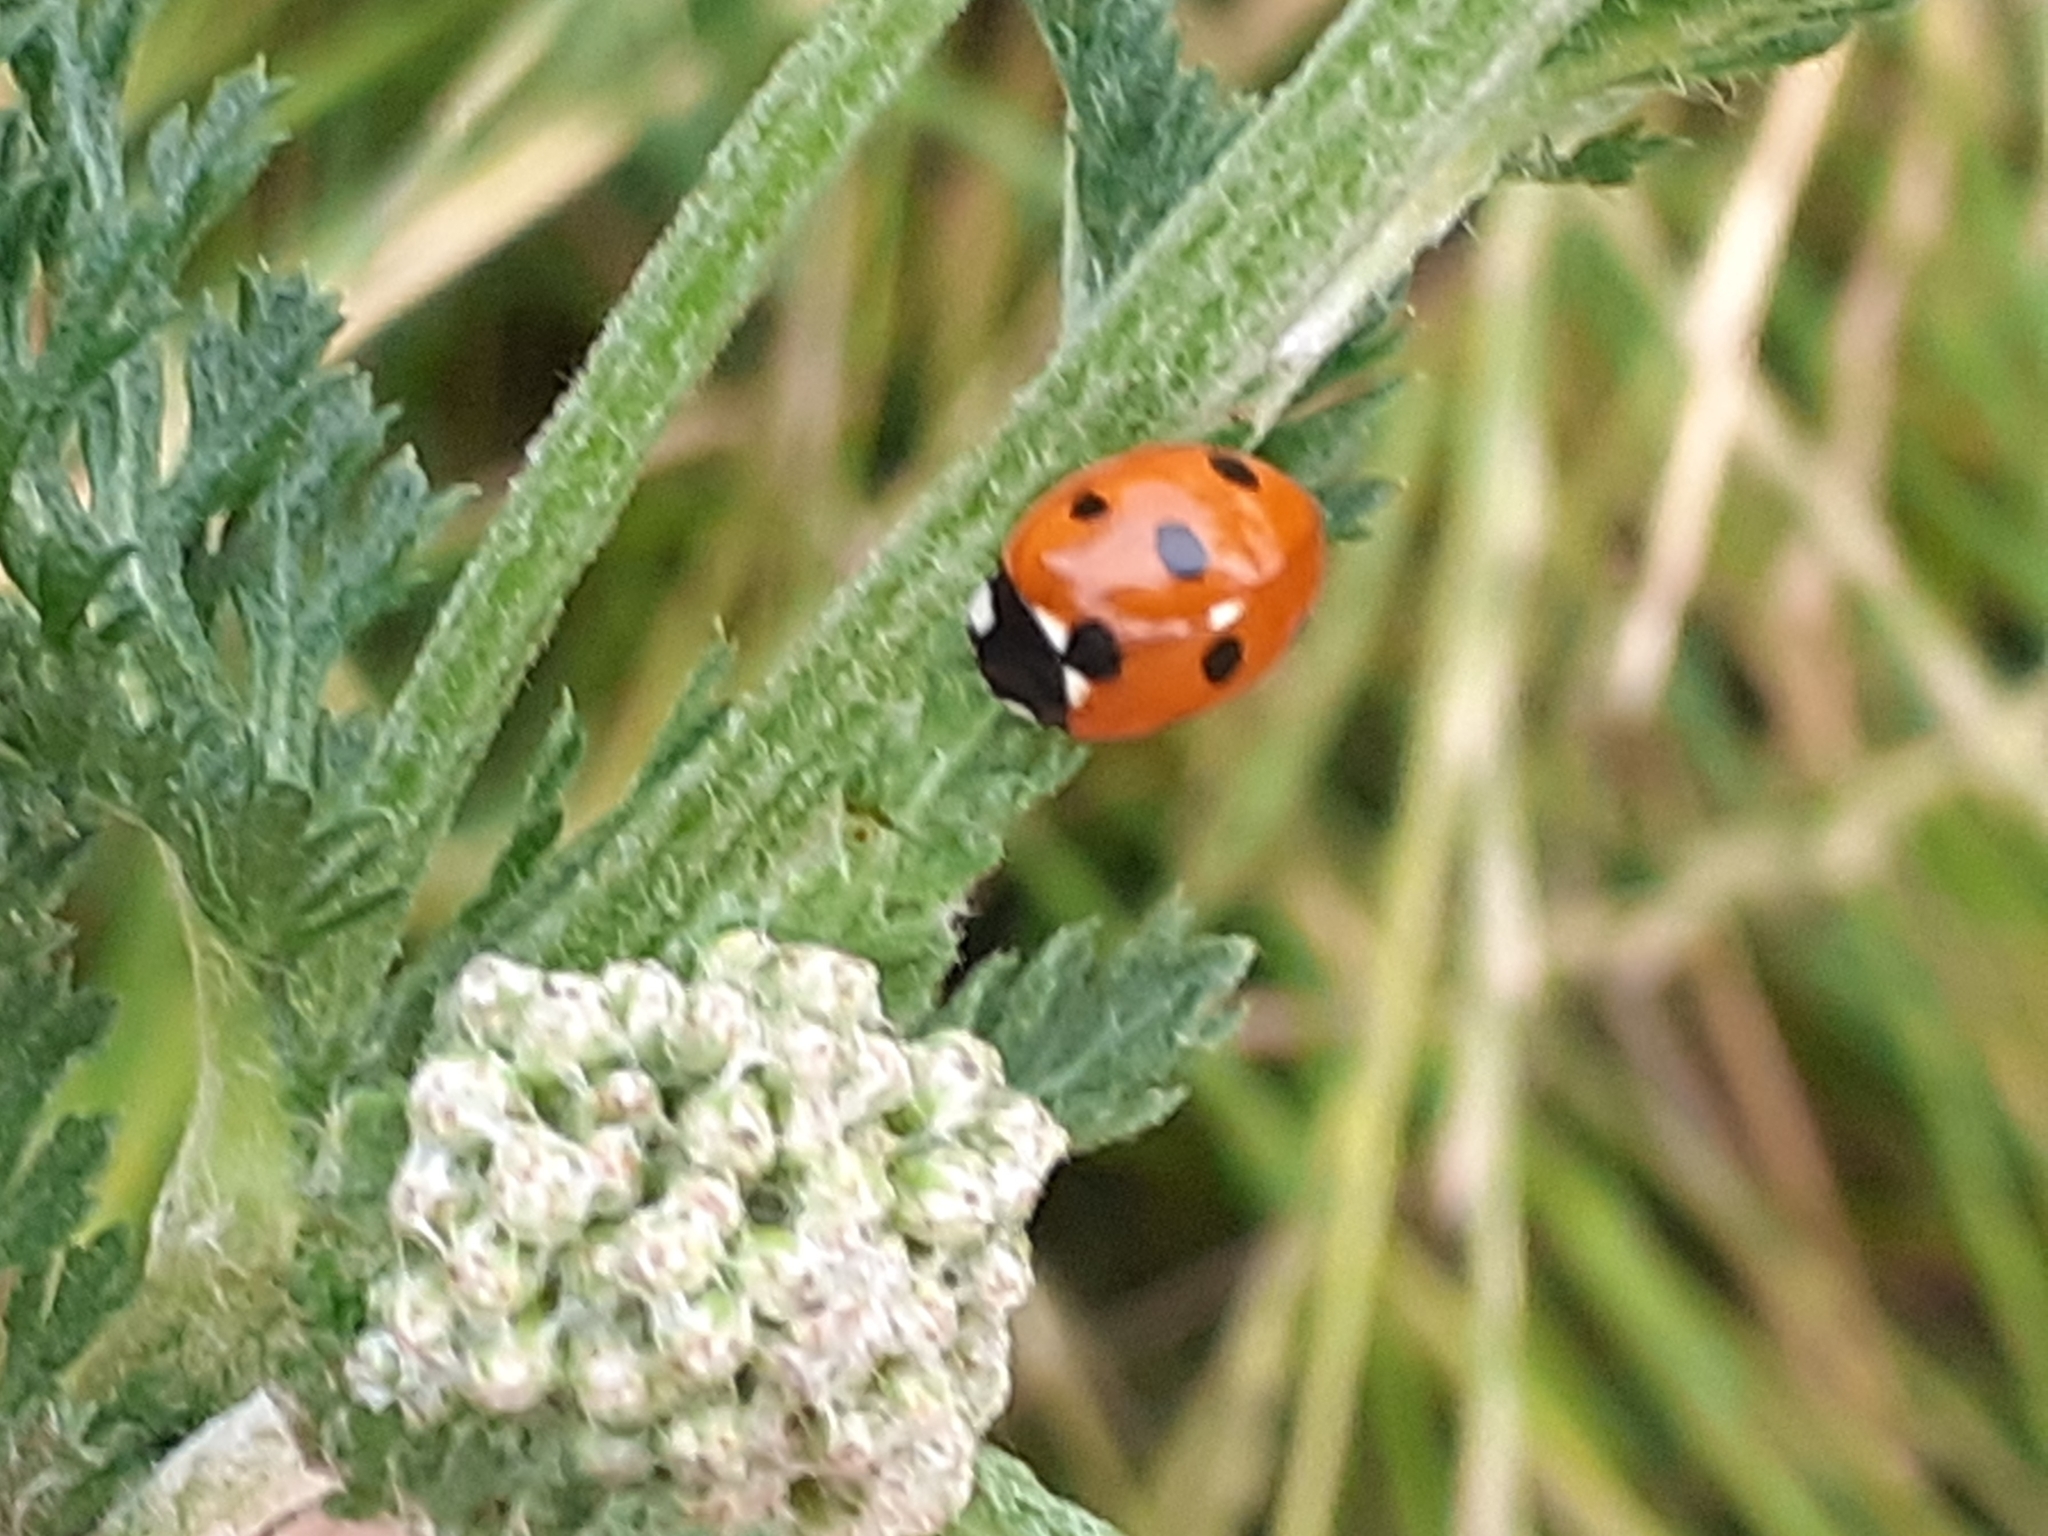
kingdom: Animalia
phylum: Arthropoda
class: Insecta
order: Coleoptera
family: Coccinellidae
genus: Coccinella
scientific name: Coccinella septempunctata
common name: Sevenspotted lady beetle
